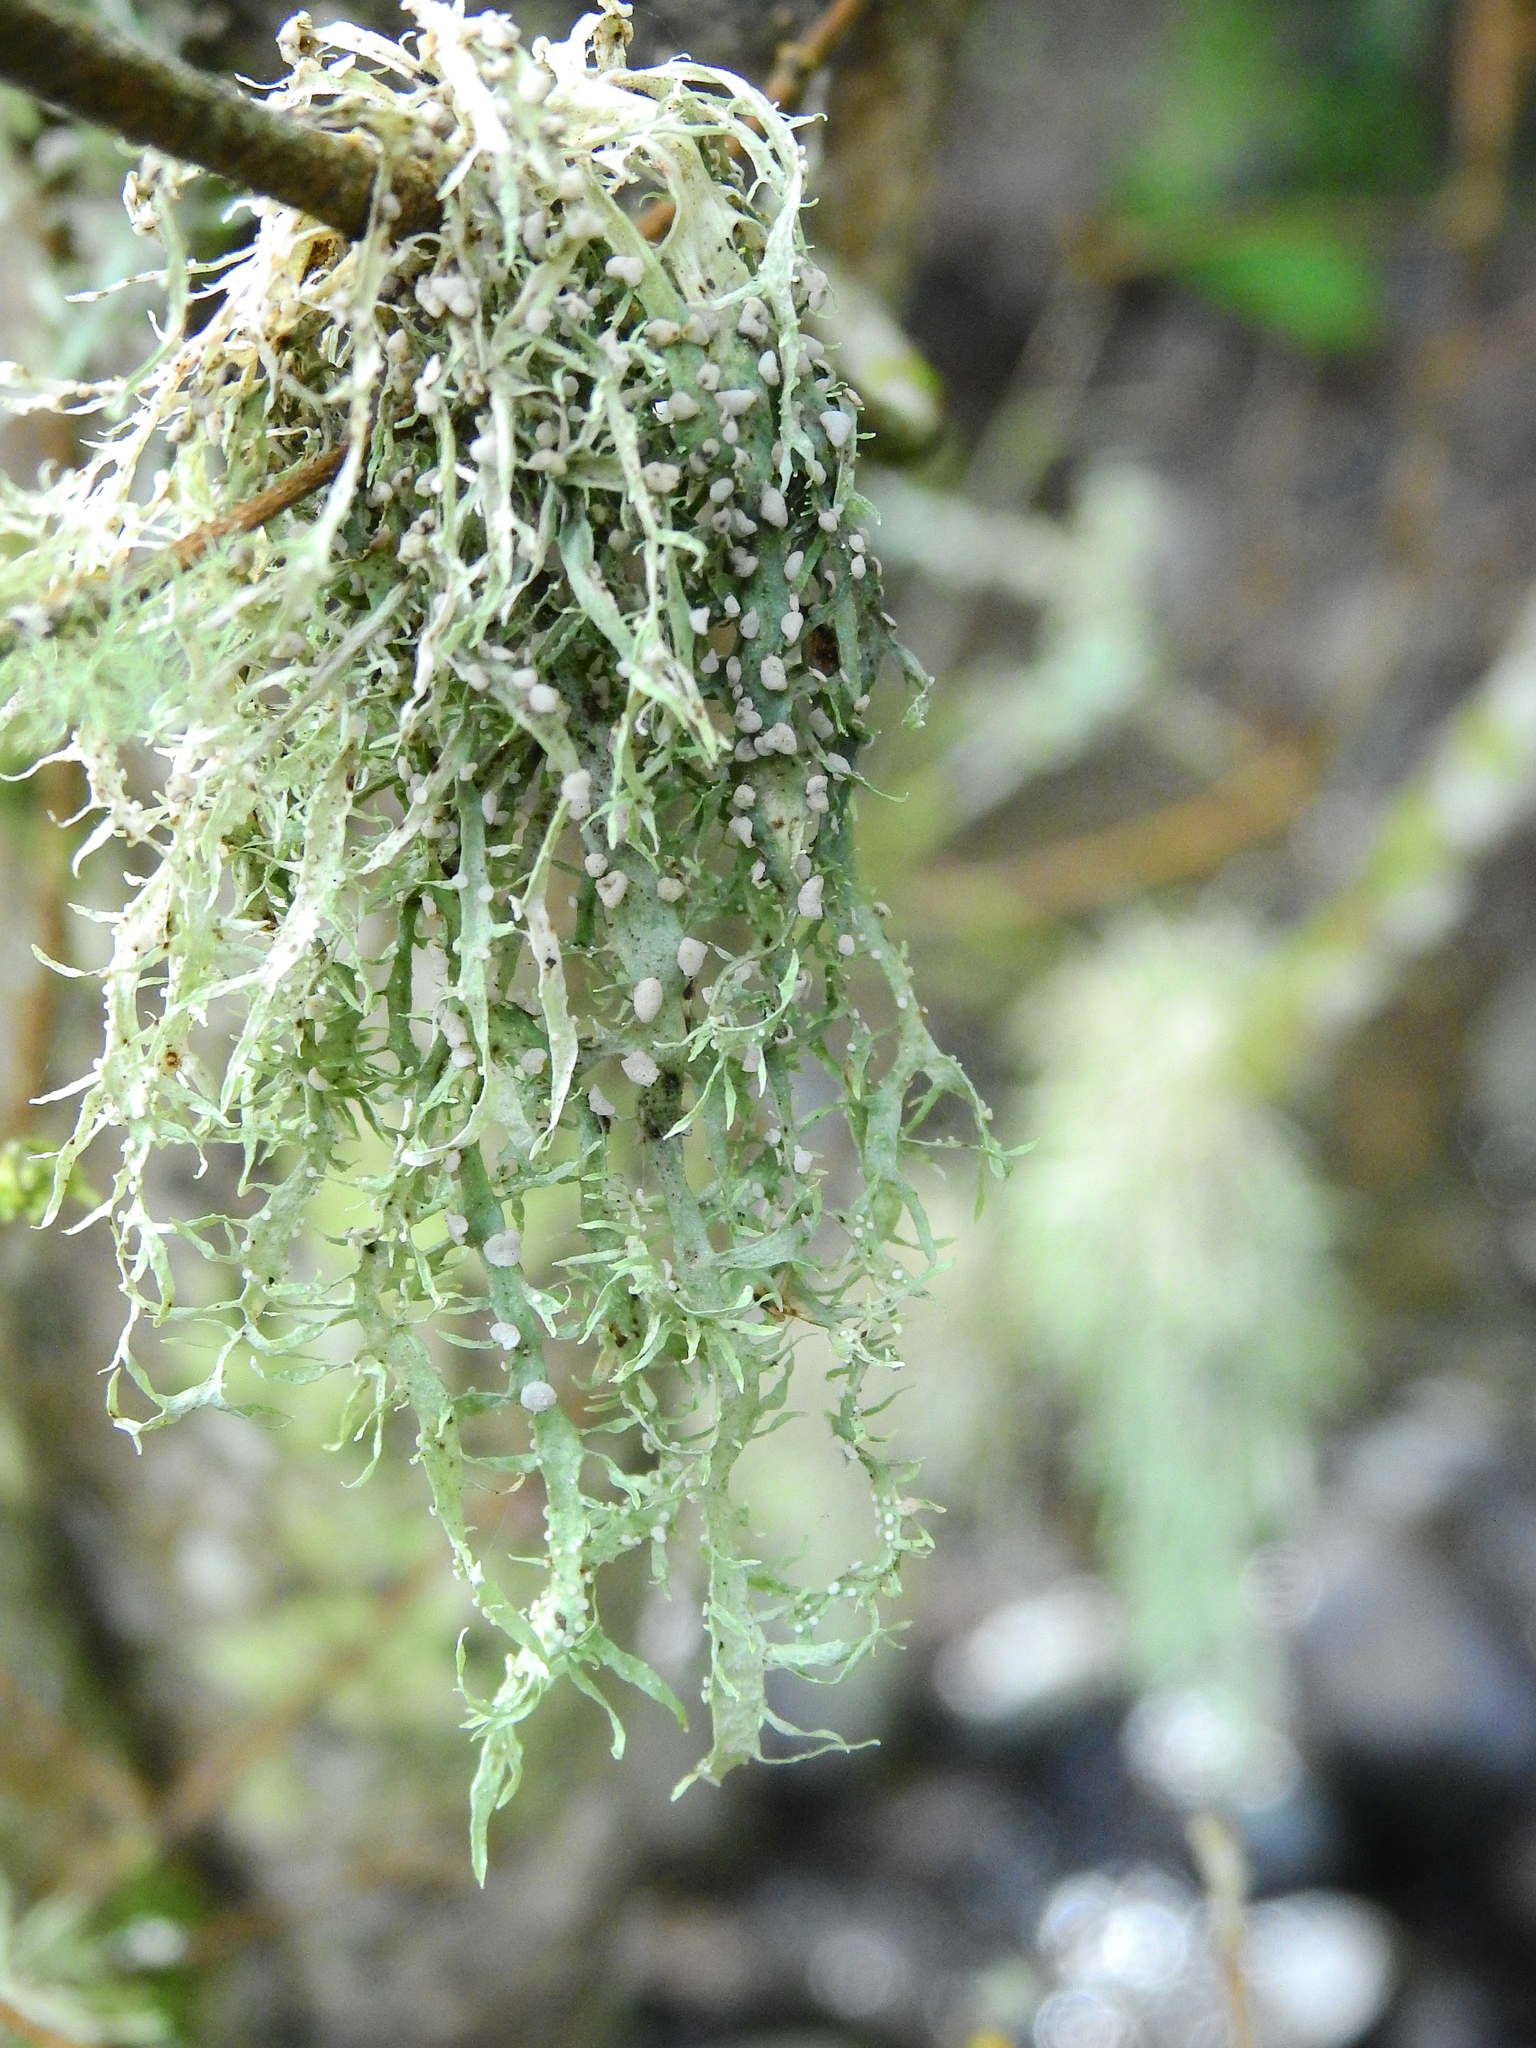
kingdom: Fungi
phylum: Ascomycota
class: Lecanoromycetes
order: Lecanorales
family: Ramalinaceae
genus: Ramalina
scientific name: Ramalina celastri
